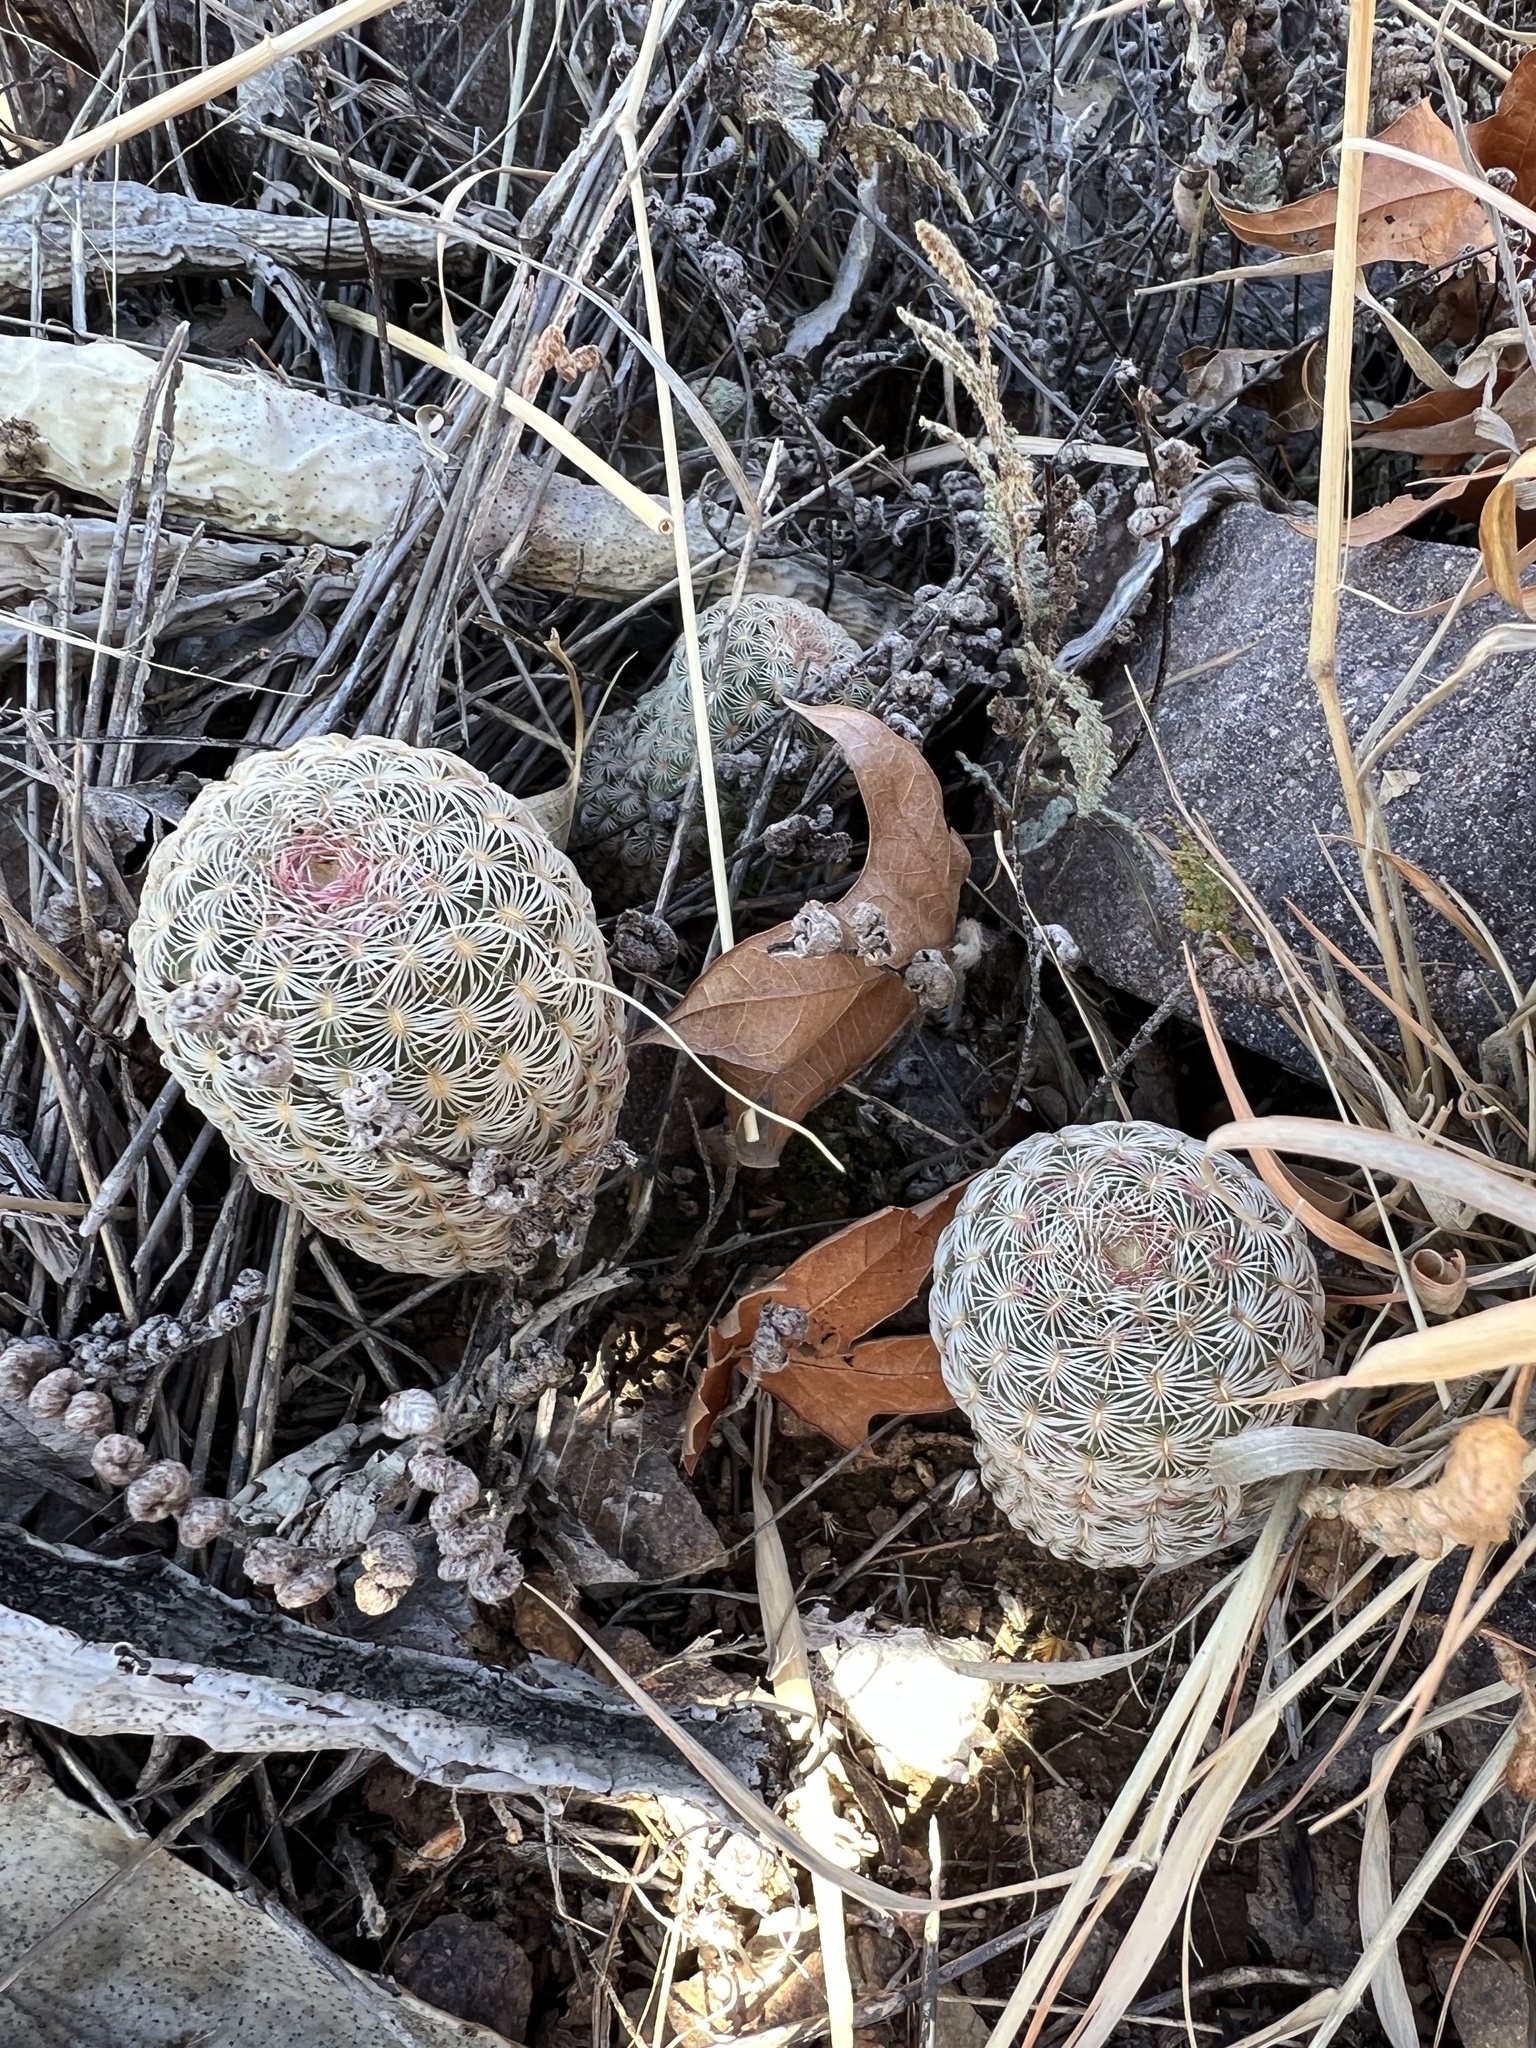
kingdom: Plantae
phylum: Tracheophyta
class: Magnoliopsida
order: Caryophyllales
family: Cactaceae
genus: Echinocereus
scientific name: Echinocereus rigidissimus
